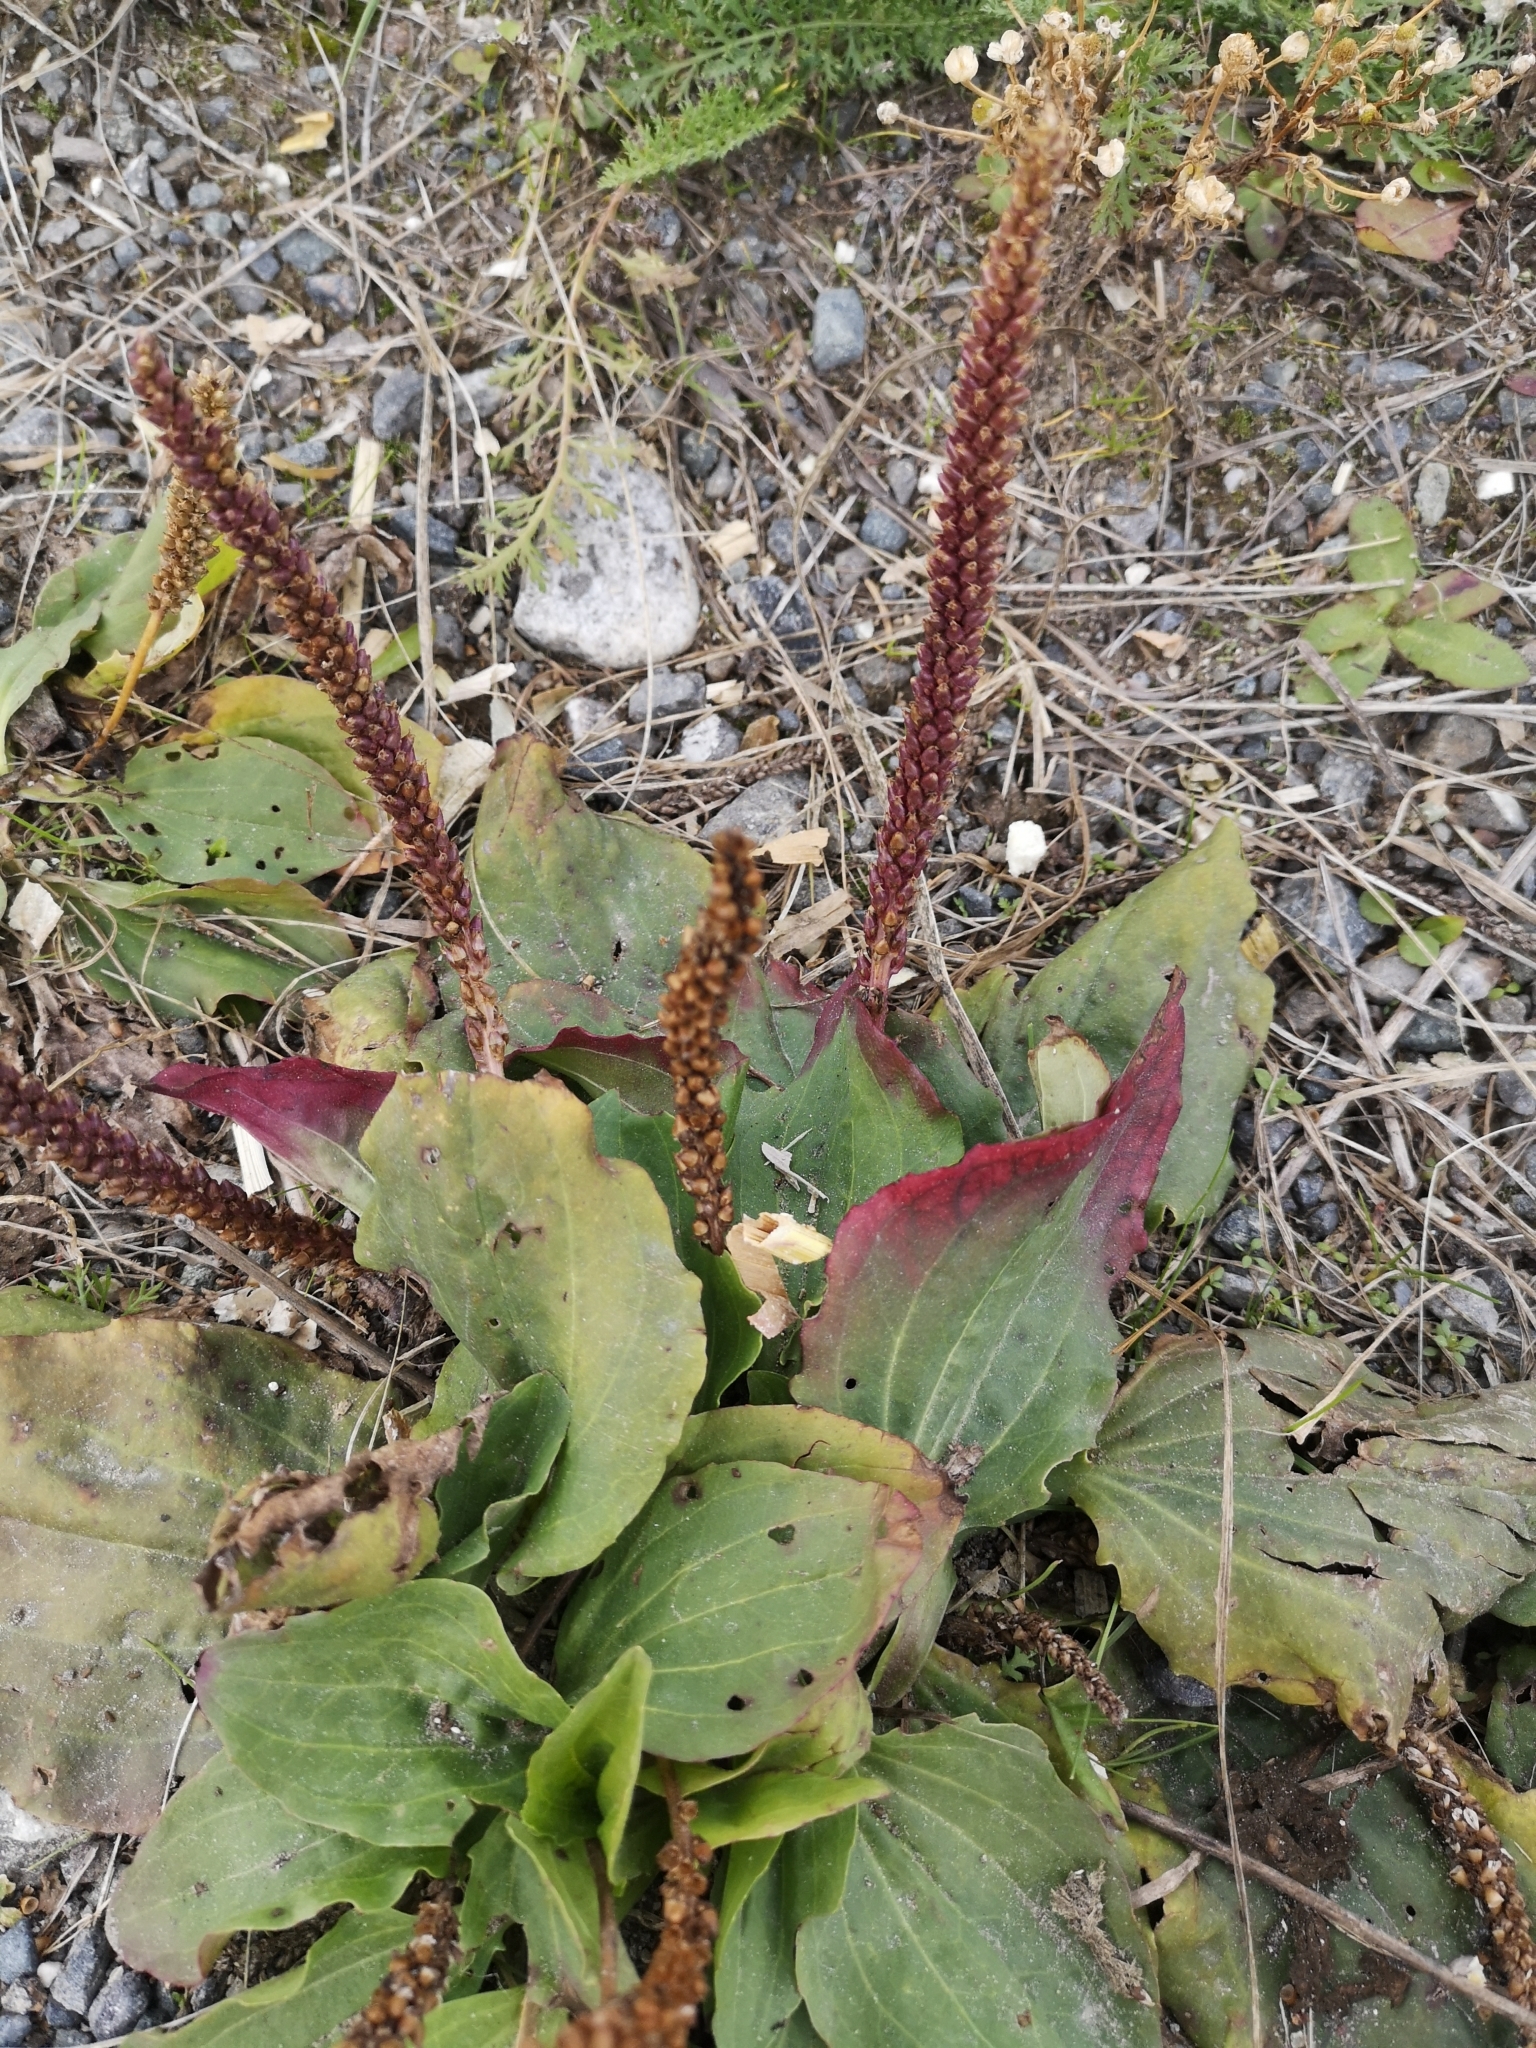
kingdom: Plantae
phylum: Tracheophyta
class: Magnoliopsida
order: Lamiales
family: Plantaginaceae
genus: Plantago
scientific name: Plantago major
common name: Common plantain
